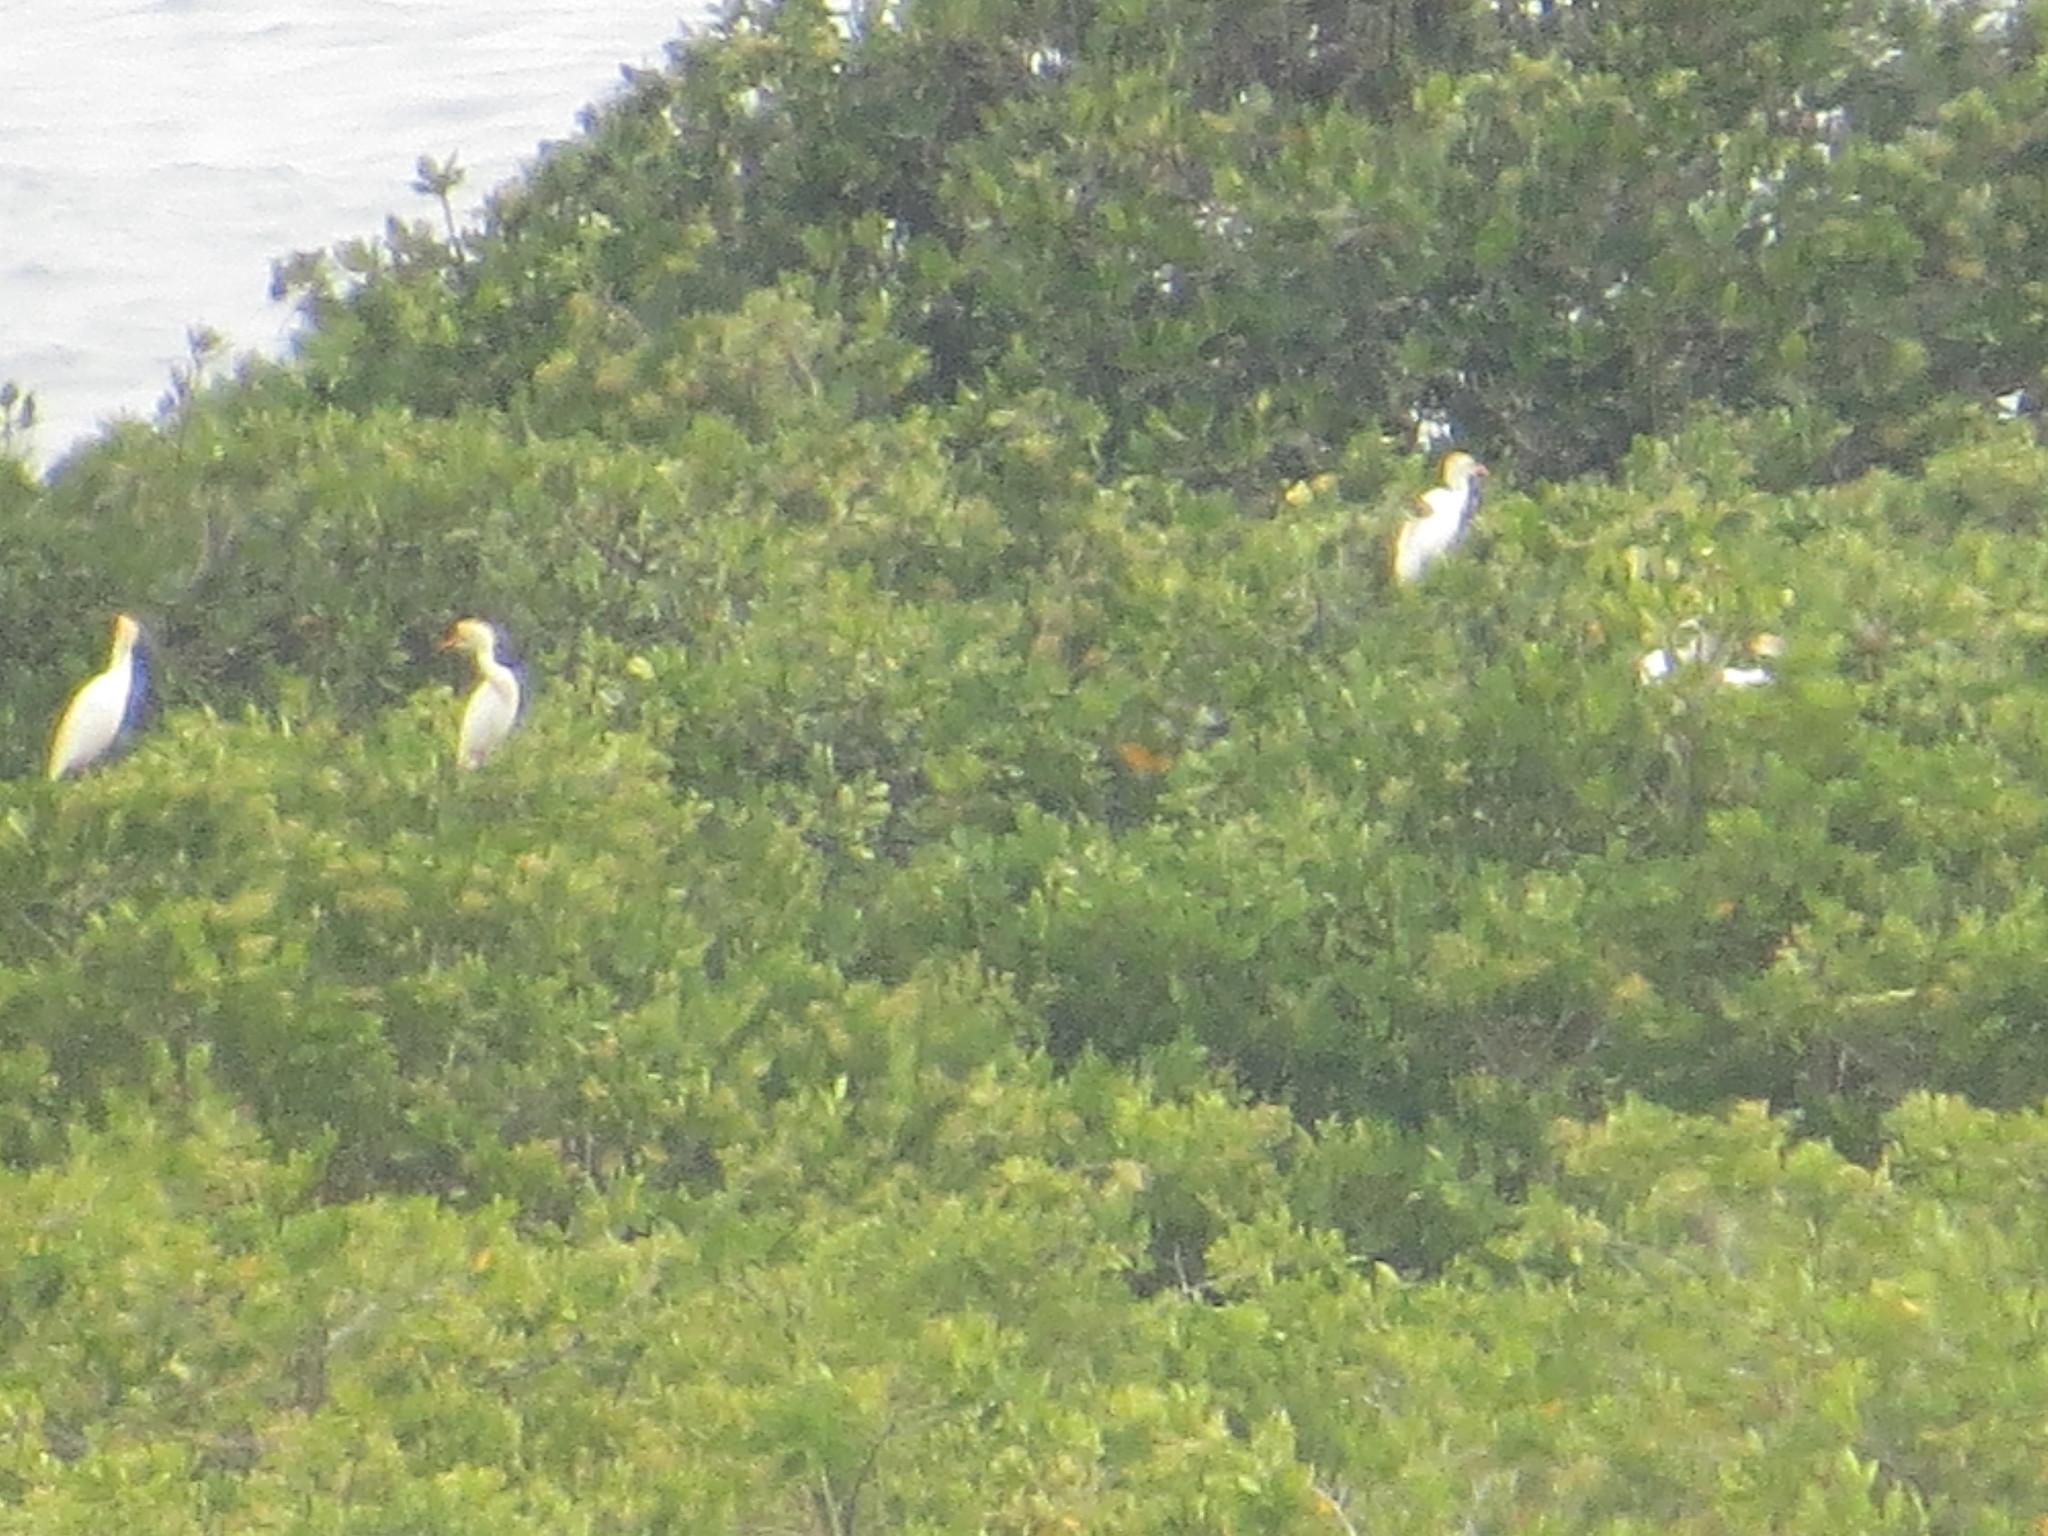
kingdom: Animalia
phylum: Chordata
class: Aves
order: Pelecaniformes
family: Ardeidae
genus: Bubulcus
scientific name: Bubulcus ibis
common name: Cattle egret
